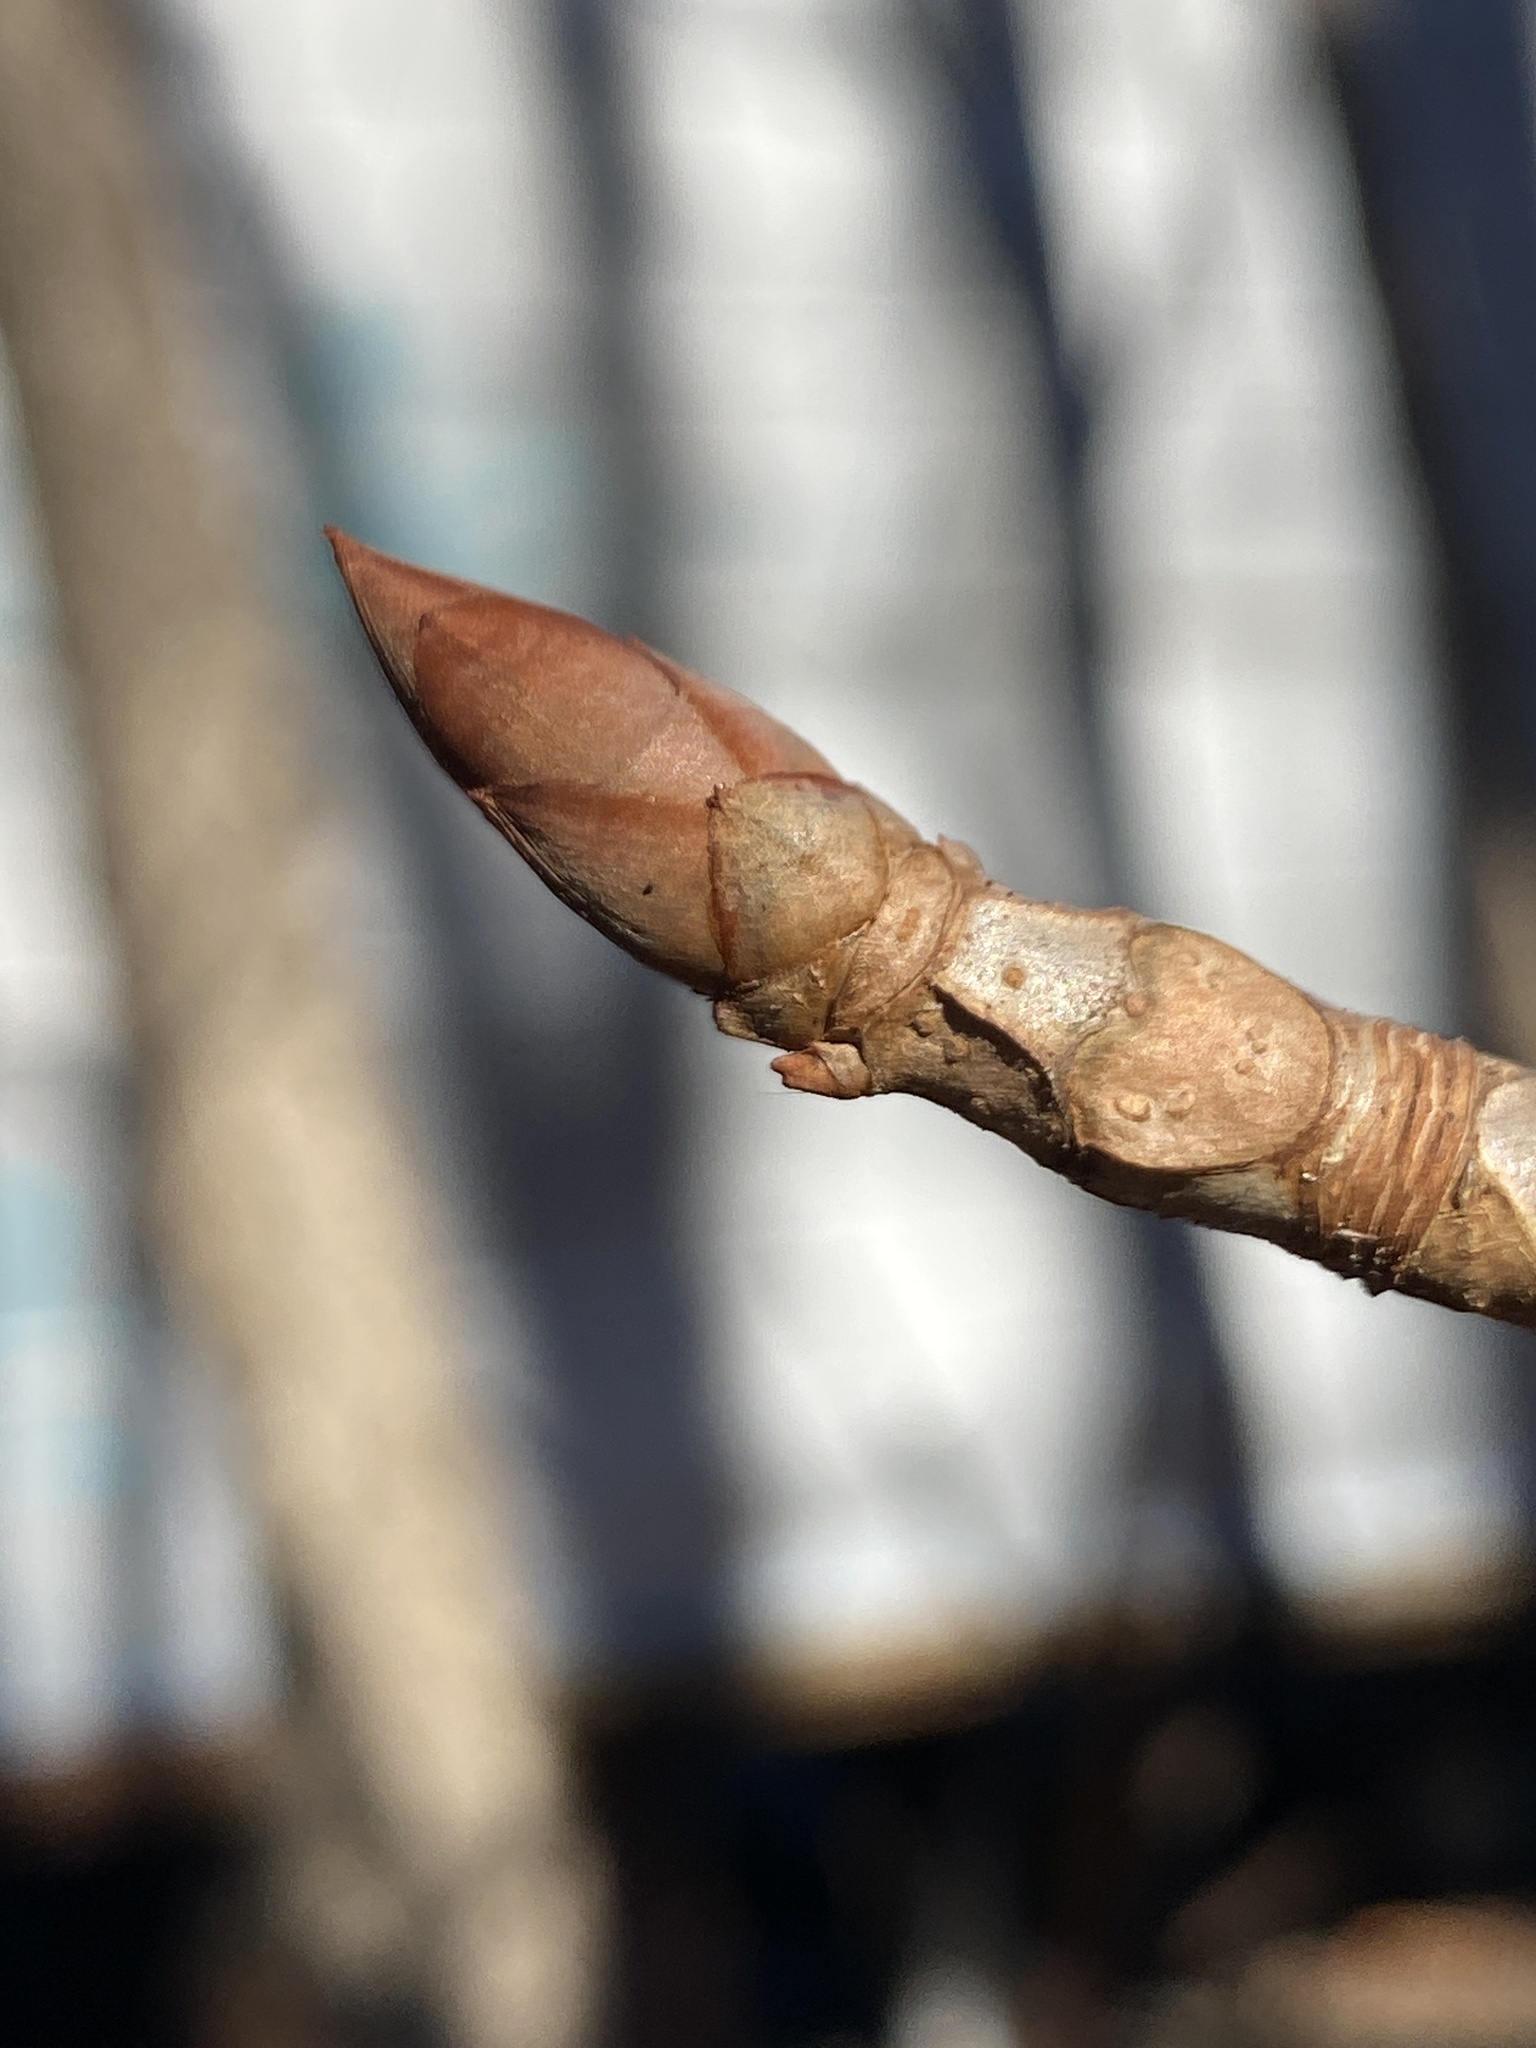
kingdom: Plantae
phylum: Tracheophyta
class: Magnoliopsida
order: Sapindales
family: Sapindaceae
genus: Aesculus
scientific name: Aesculus flava
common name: Yellow buckeye
